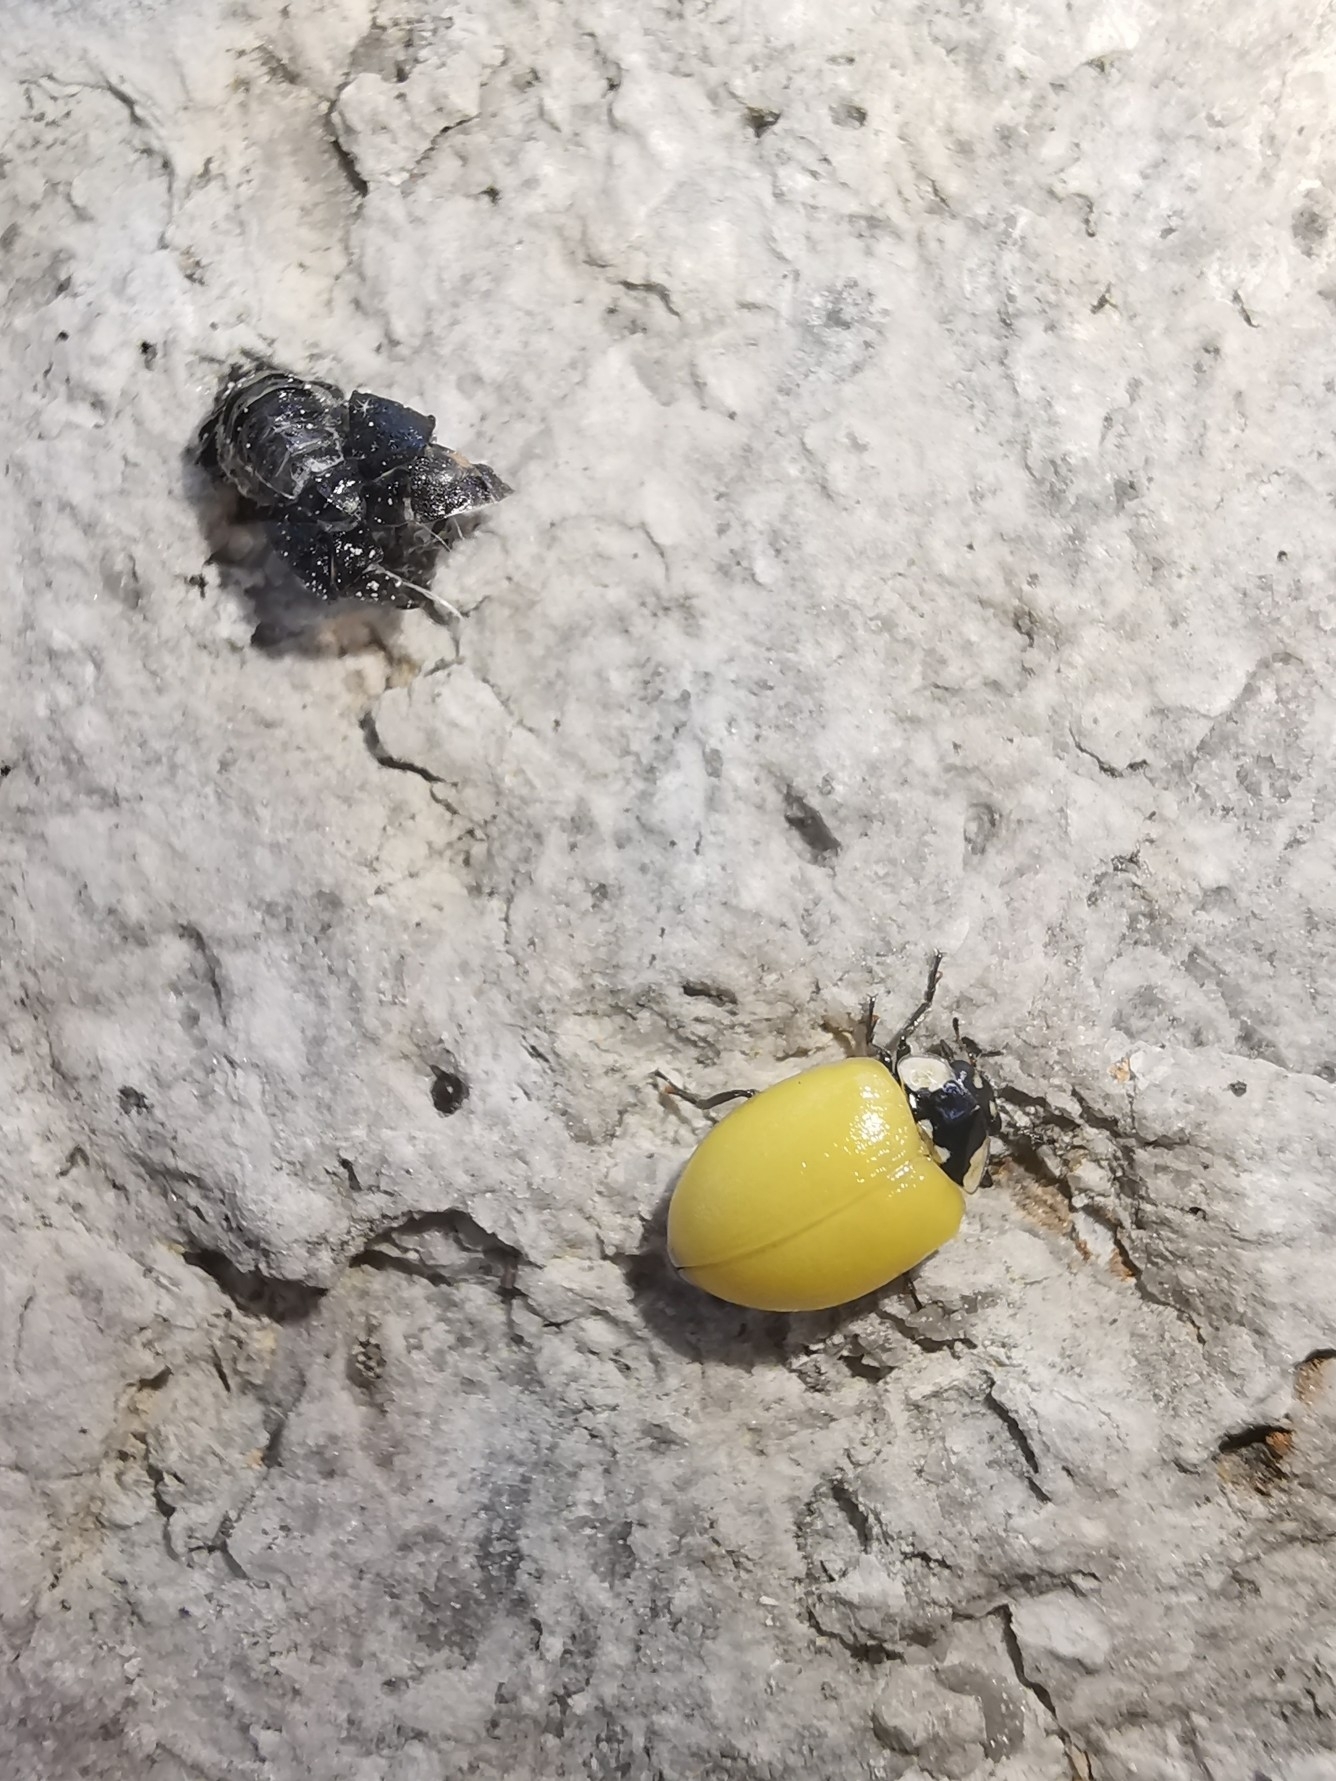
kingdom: Animalia
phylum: Arthropoda
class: Insecta
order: Coleoptera
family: Coccinellidae
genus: Adalia
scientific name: Adalia bipunctata
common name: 2-spot ladybird
